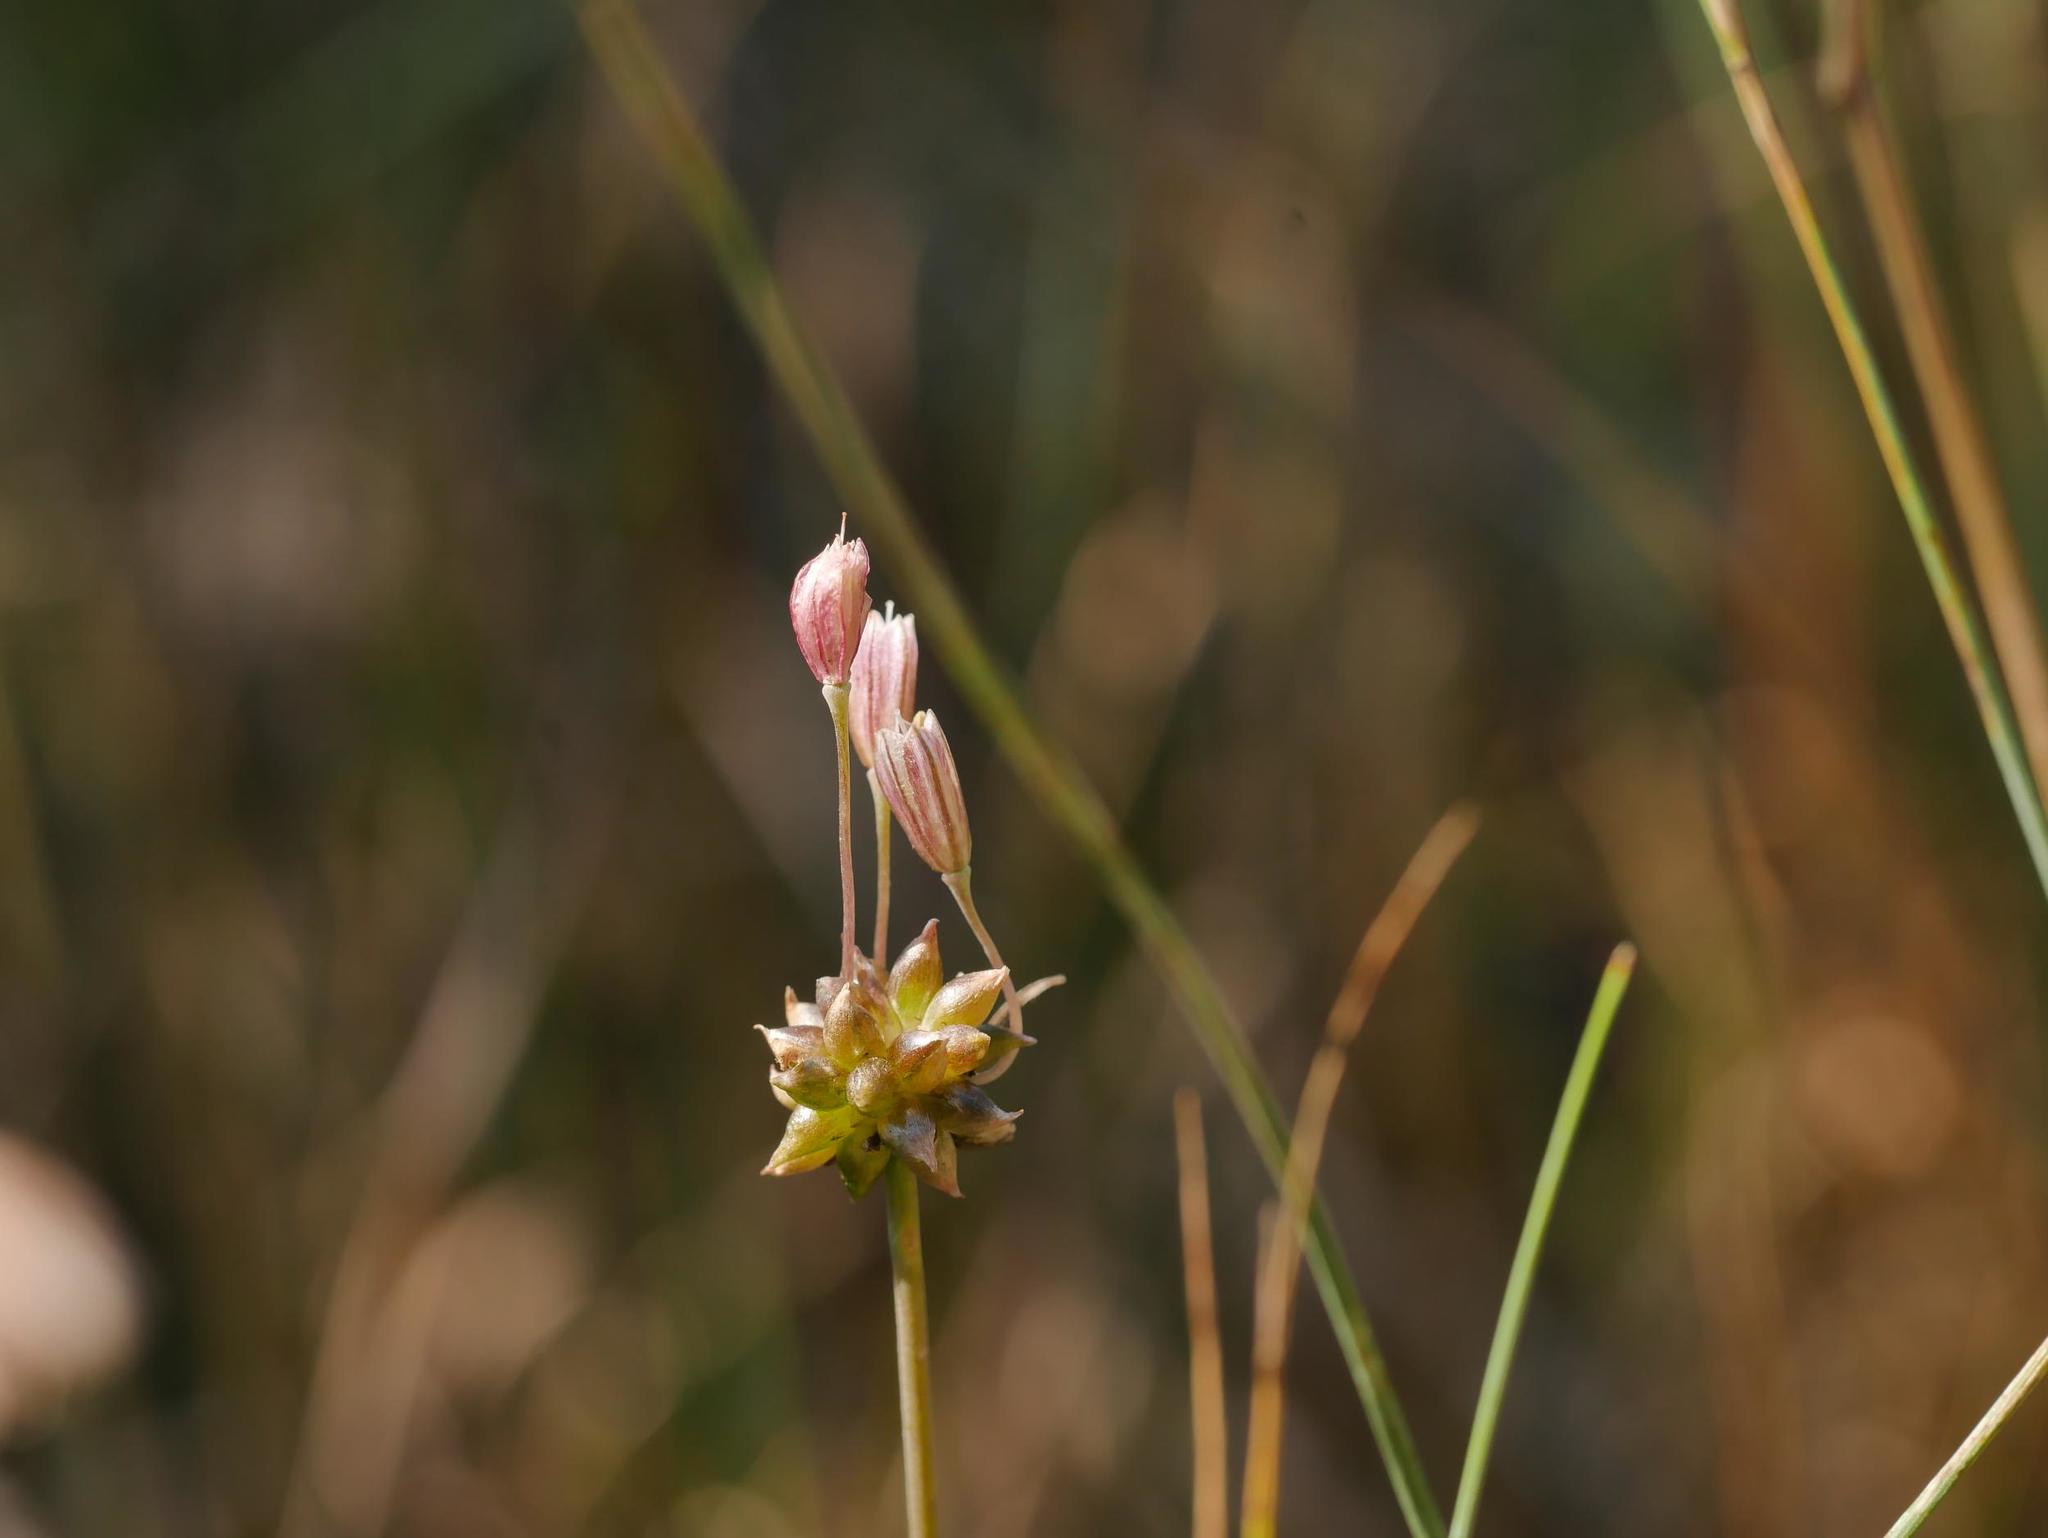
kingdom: Plantae
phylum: Tracheophyta
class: Liliopsida
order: Asparagales
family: Amaryllidaceae
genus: Allium
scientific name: Allium oleraceum
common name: Field garlic
